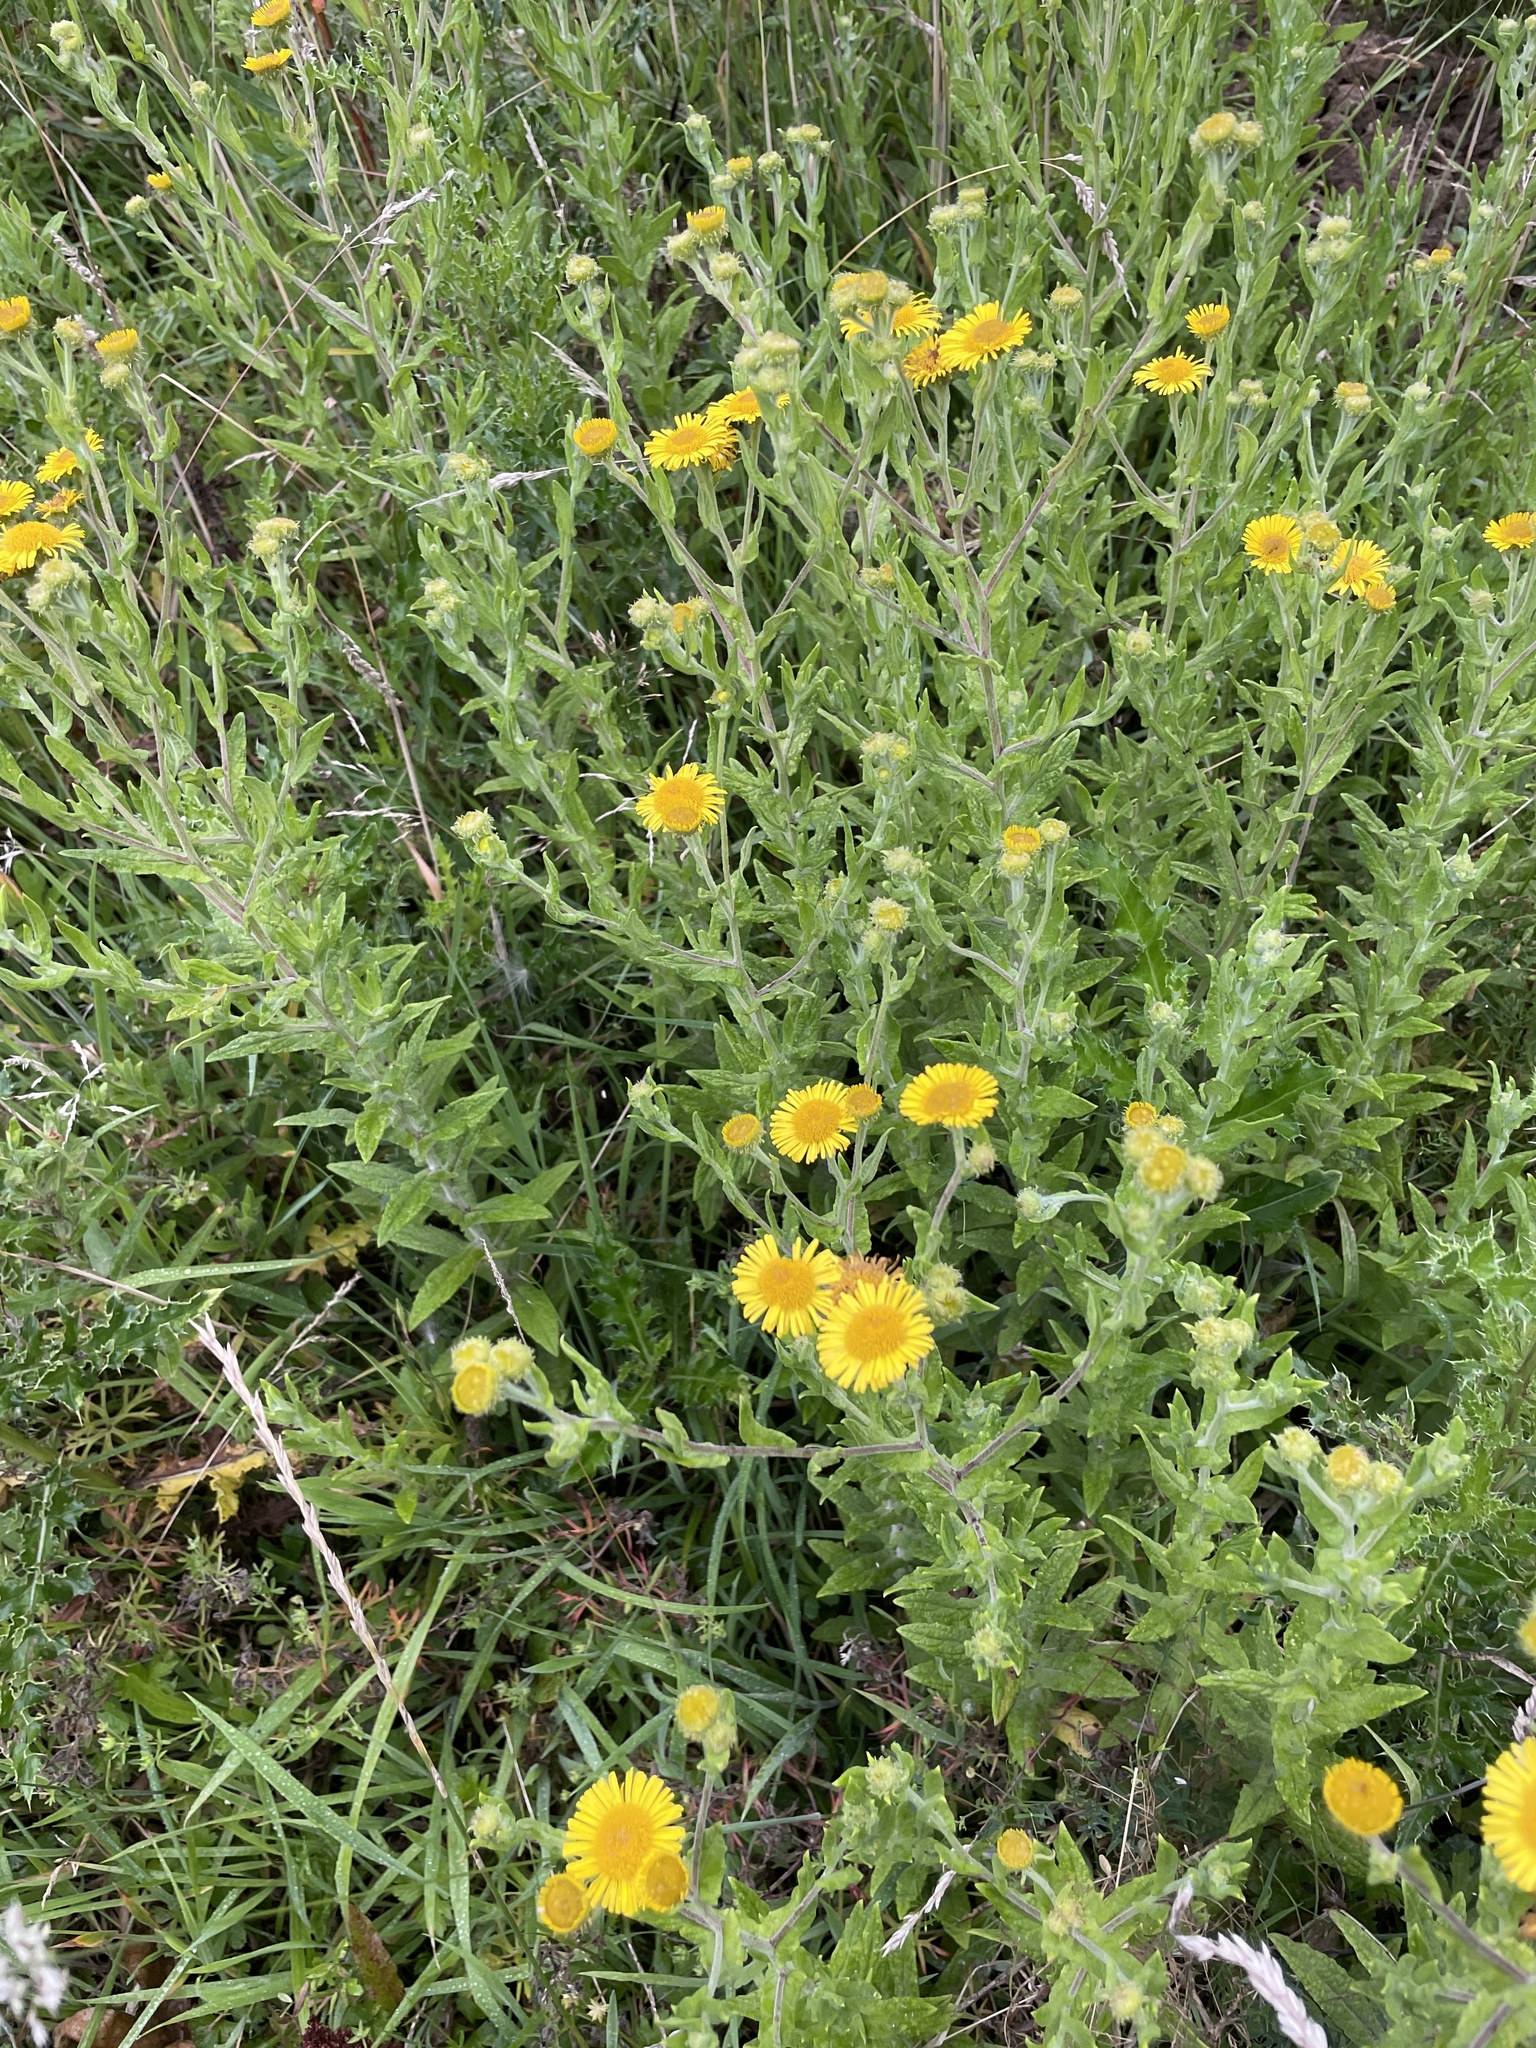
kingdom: Plantae
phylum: Tracheophyta
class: Magnoliopsida
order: Asterales
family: Asteraceae
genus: Pulicaria
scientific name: Pulicaria dysenterica
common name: Common fleabane
